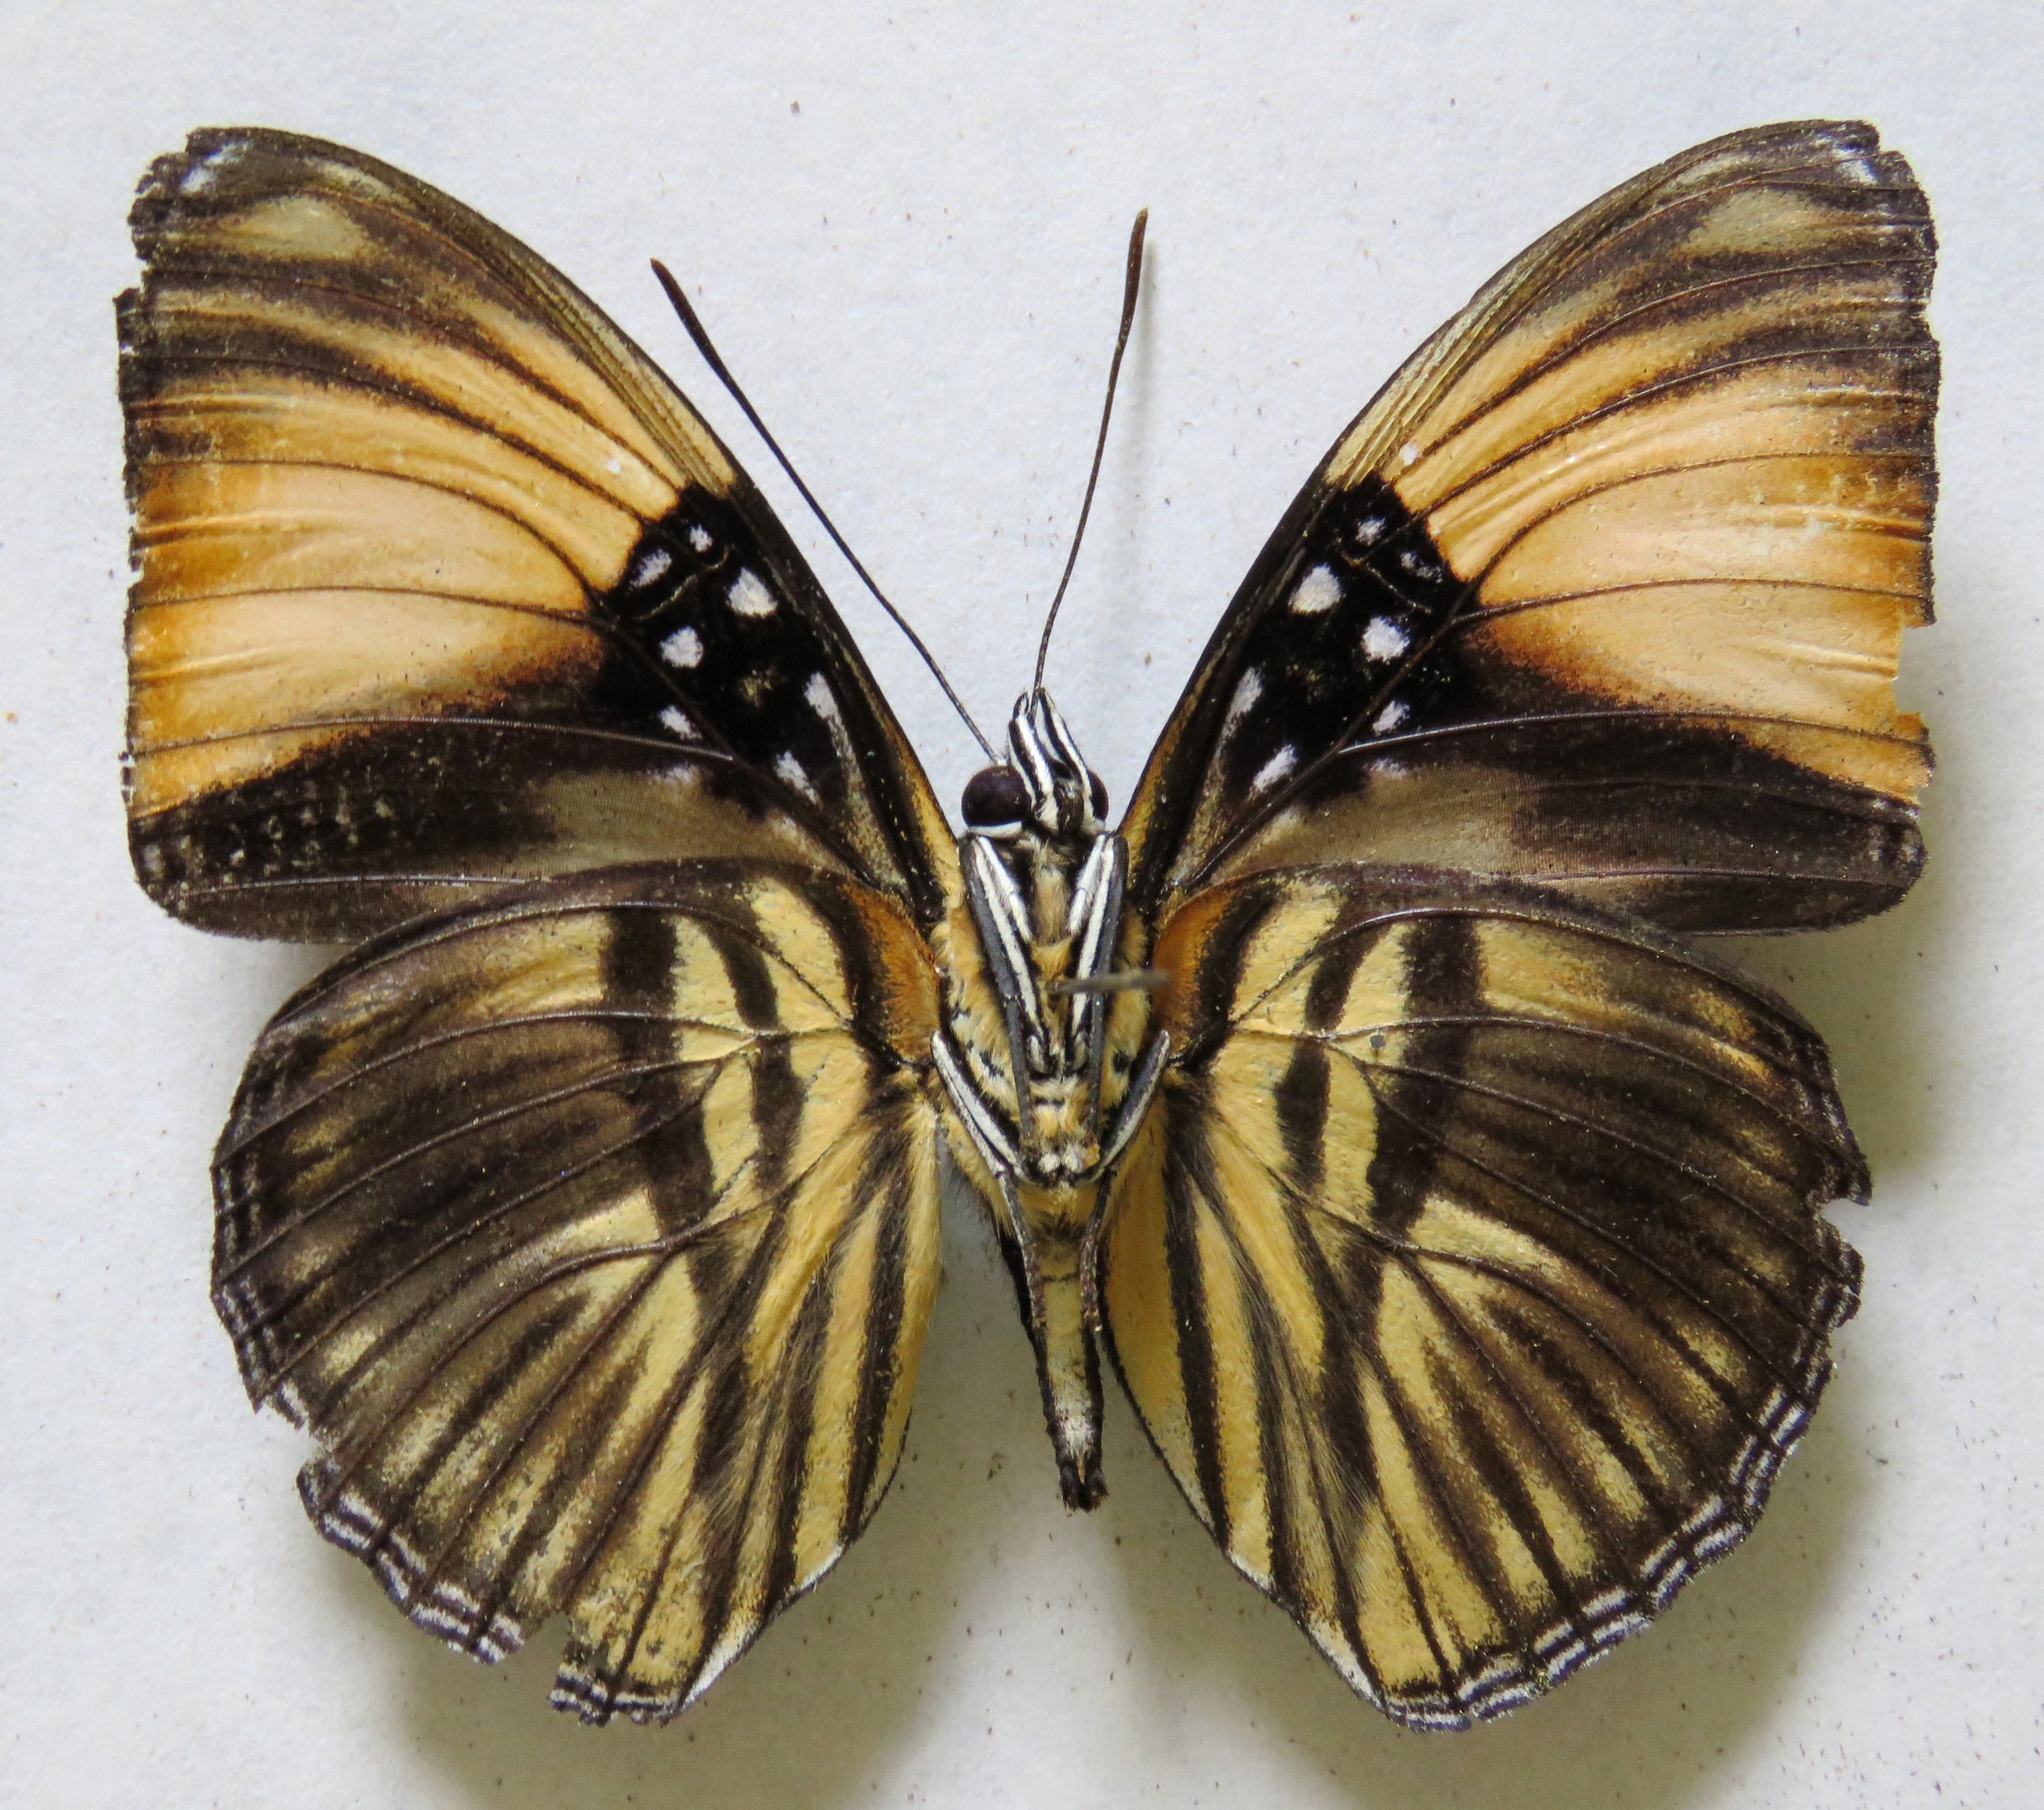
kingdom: Animalia
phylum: Arthropoda
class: Insecta
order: Lepidoptera
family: Nymphalidae
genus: Limenitis
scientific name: Limenitis melanthe
